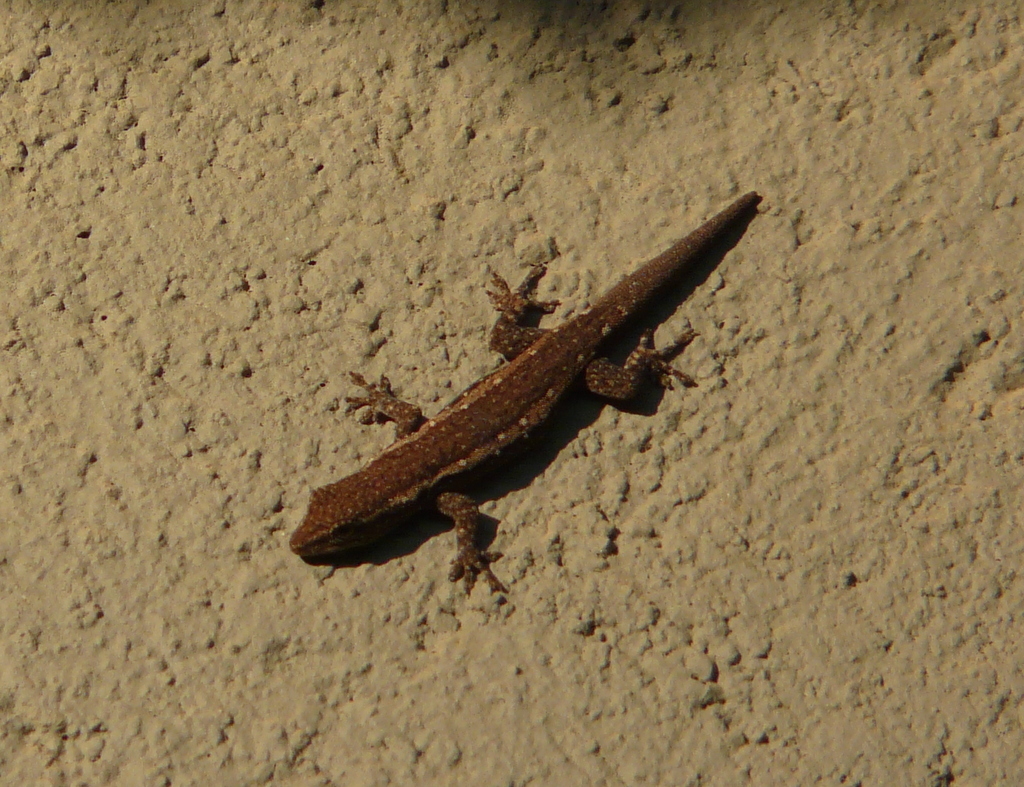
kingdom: Animalia
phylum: Chordata
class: Squamata
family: Gekkonidae
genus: Lygodactylus
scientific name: Lygodactylus capensis
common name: Cape dwarf gecko
